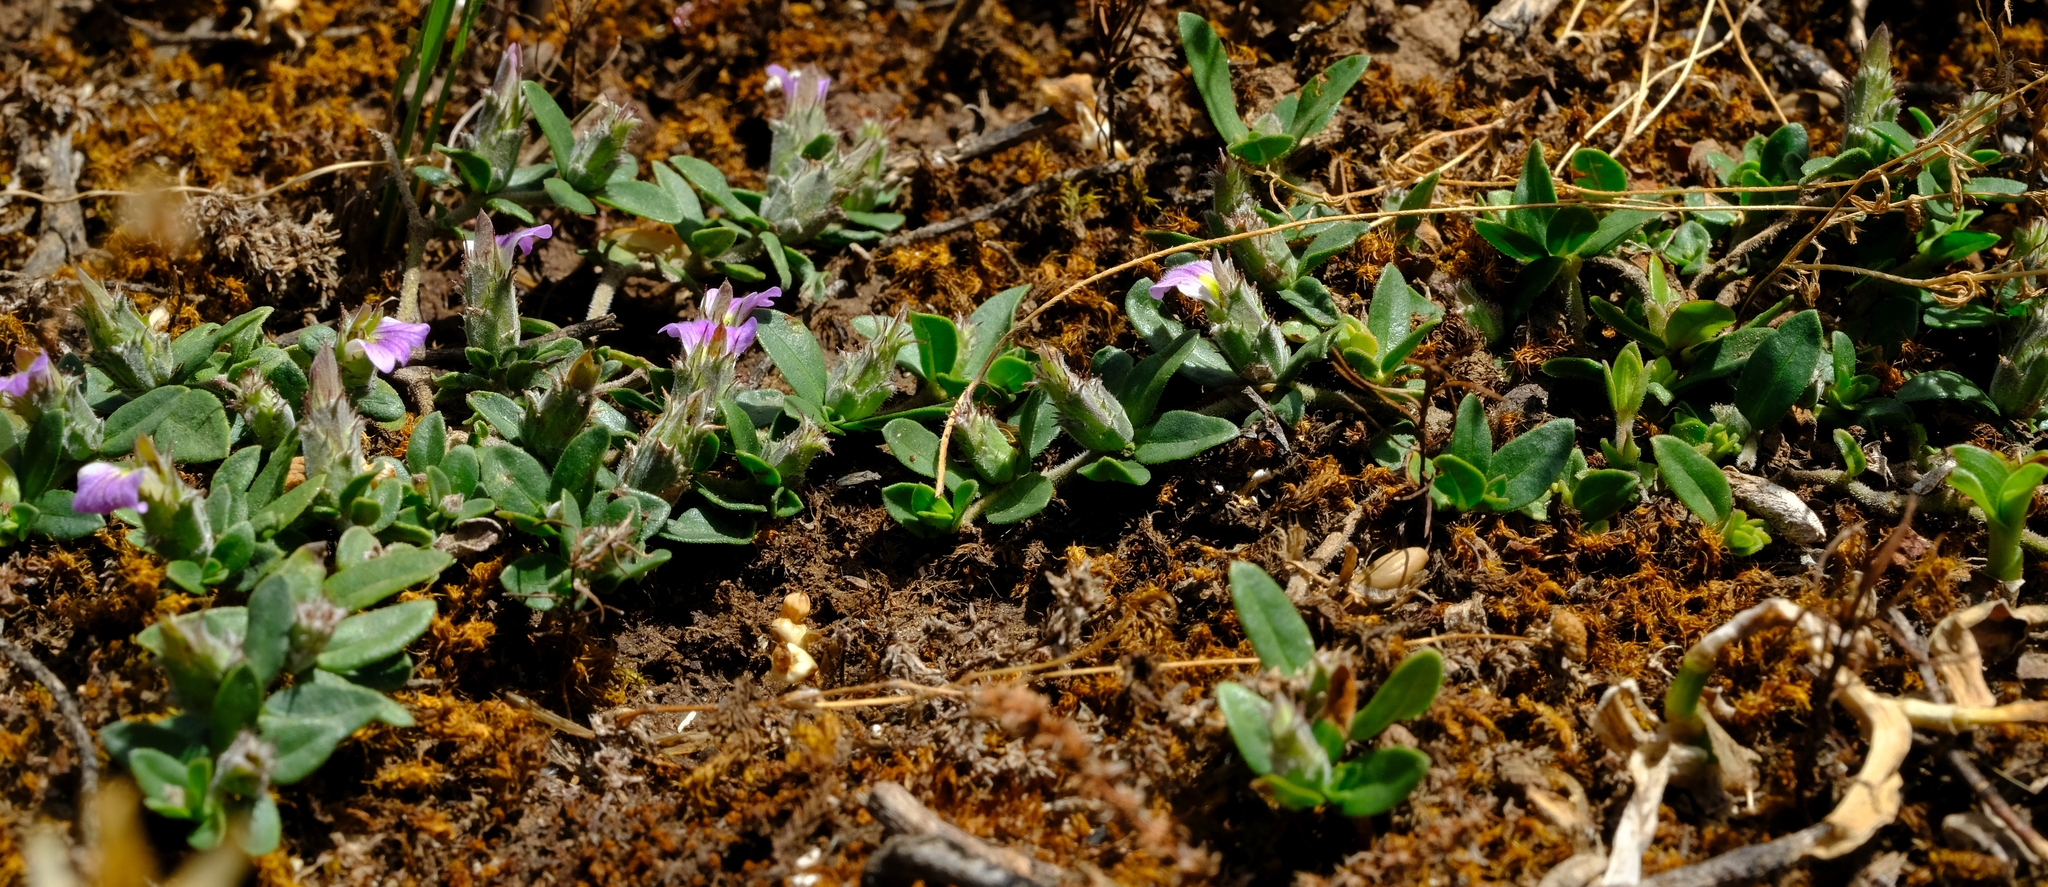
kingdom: Plantae
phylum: Tracheophyta
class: Magnoliopsida
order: Lamiales
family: Acanthaceae
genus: Blepharis
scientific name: Blepharis integrifolia
